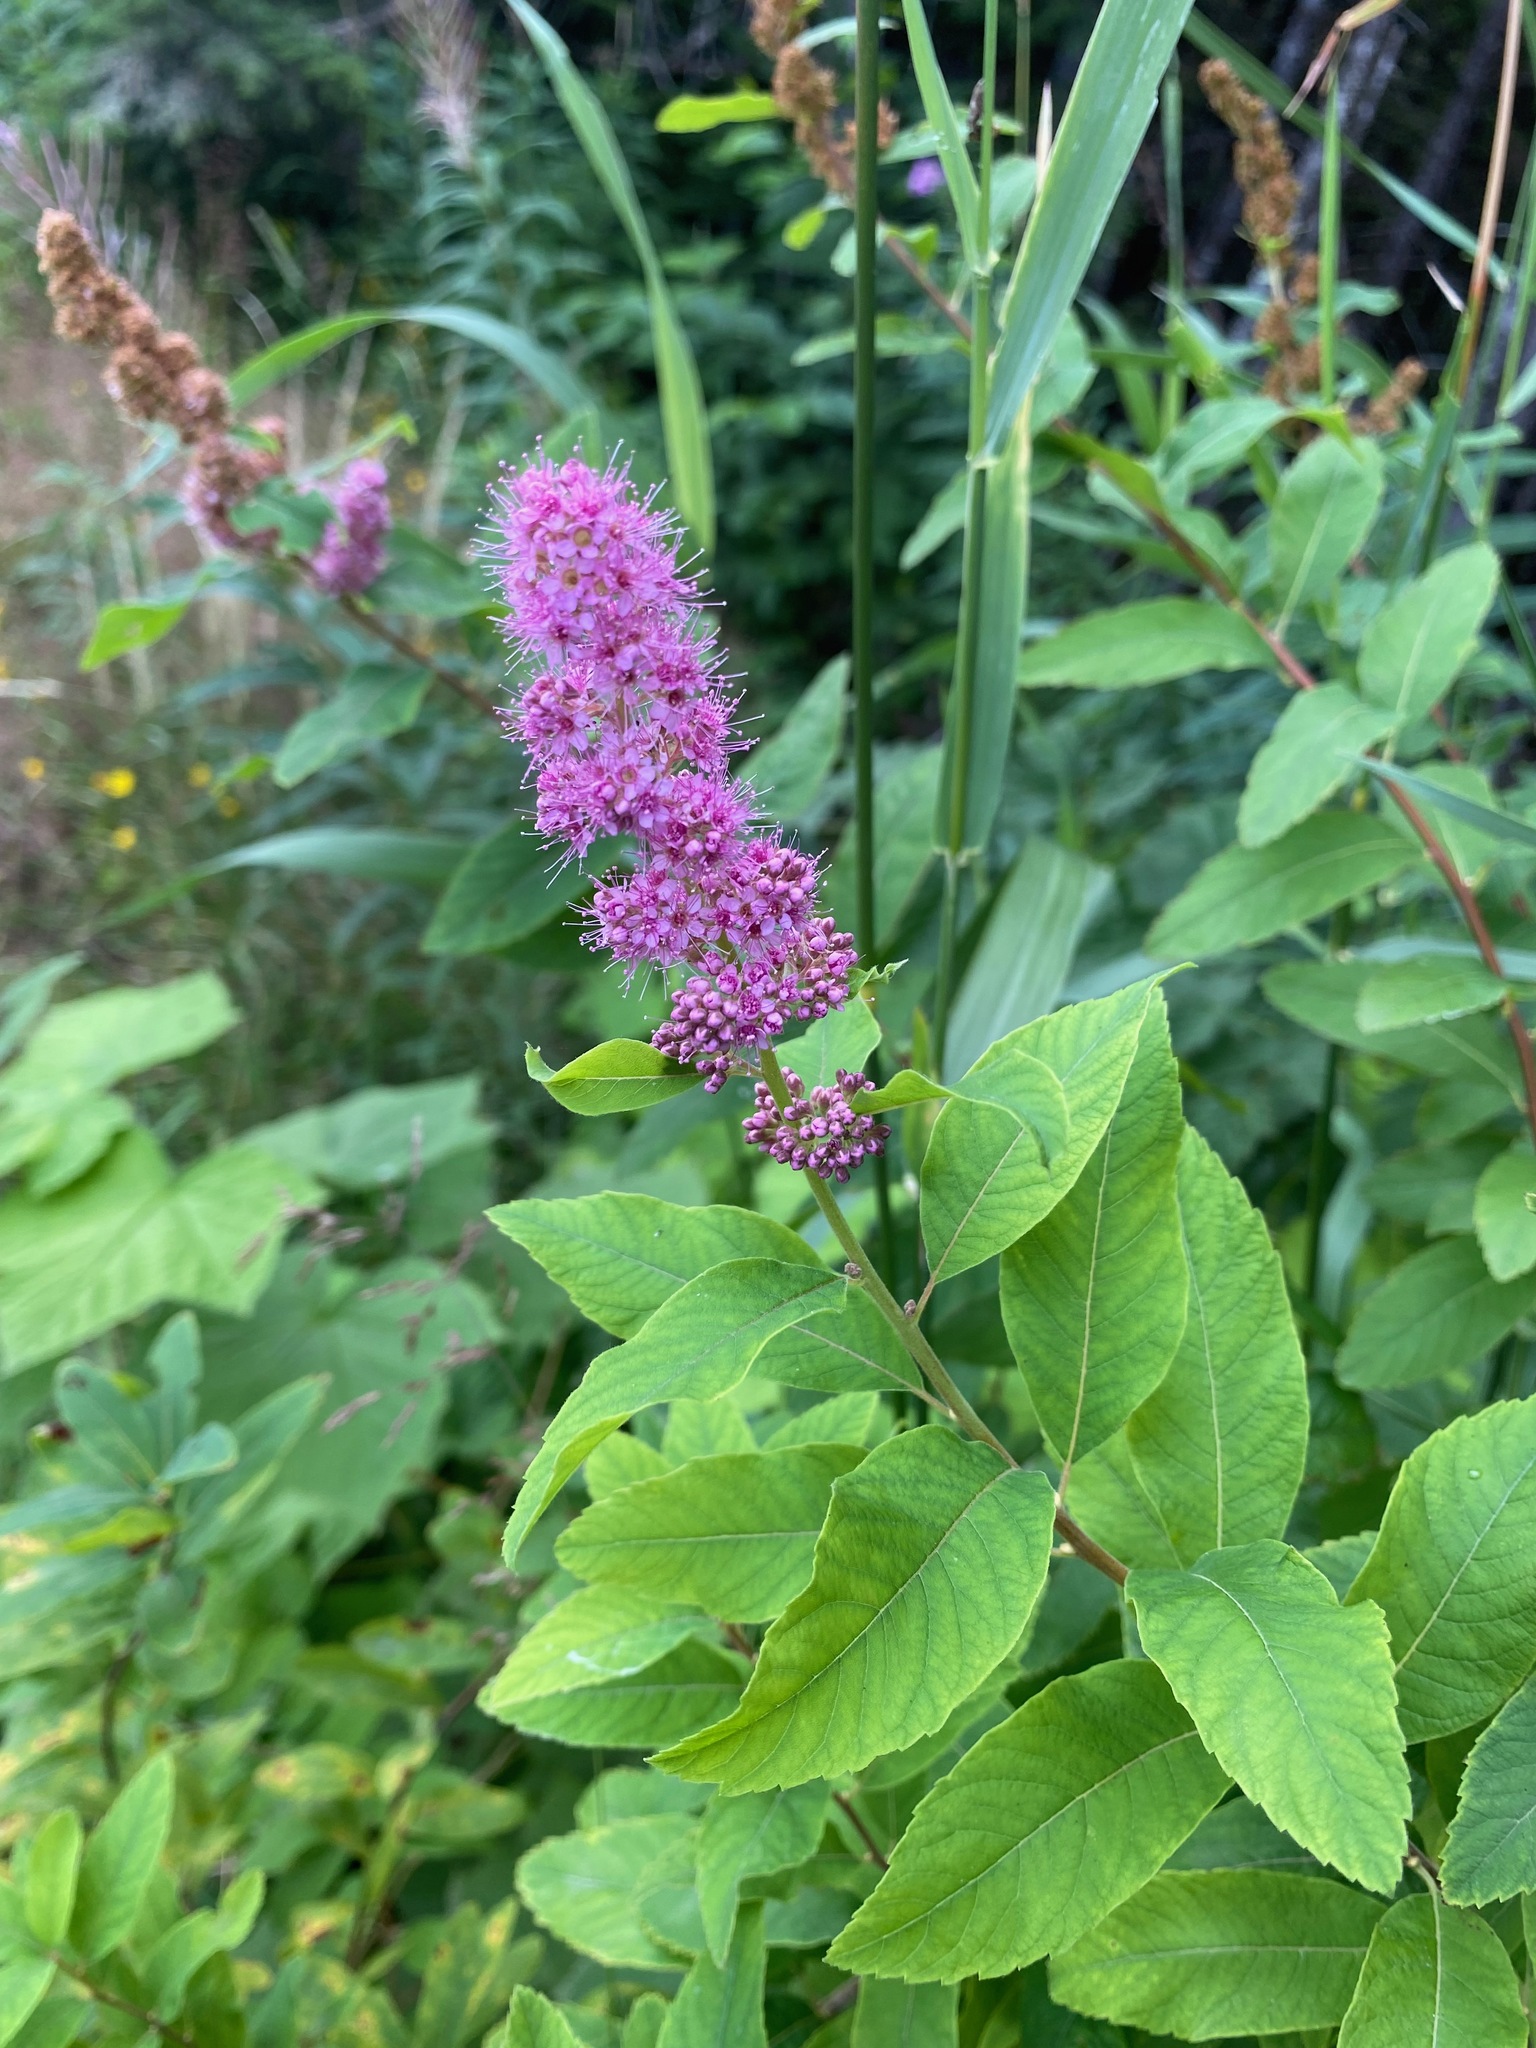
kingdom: Plantae
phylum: Tracheophyta
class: Magnoliopsida
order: Rosales
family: Rosaceae
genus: Spiraea
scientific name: Spiraea douglasii
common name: Steeplebush
